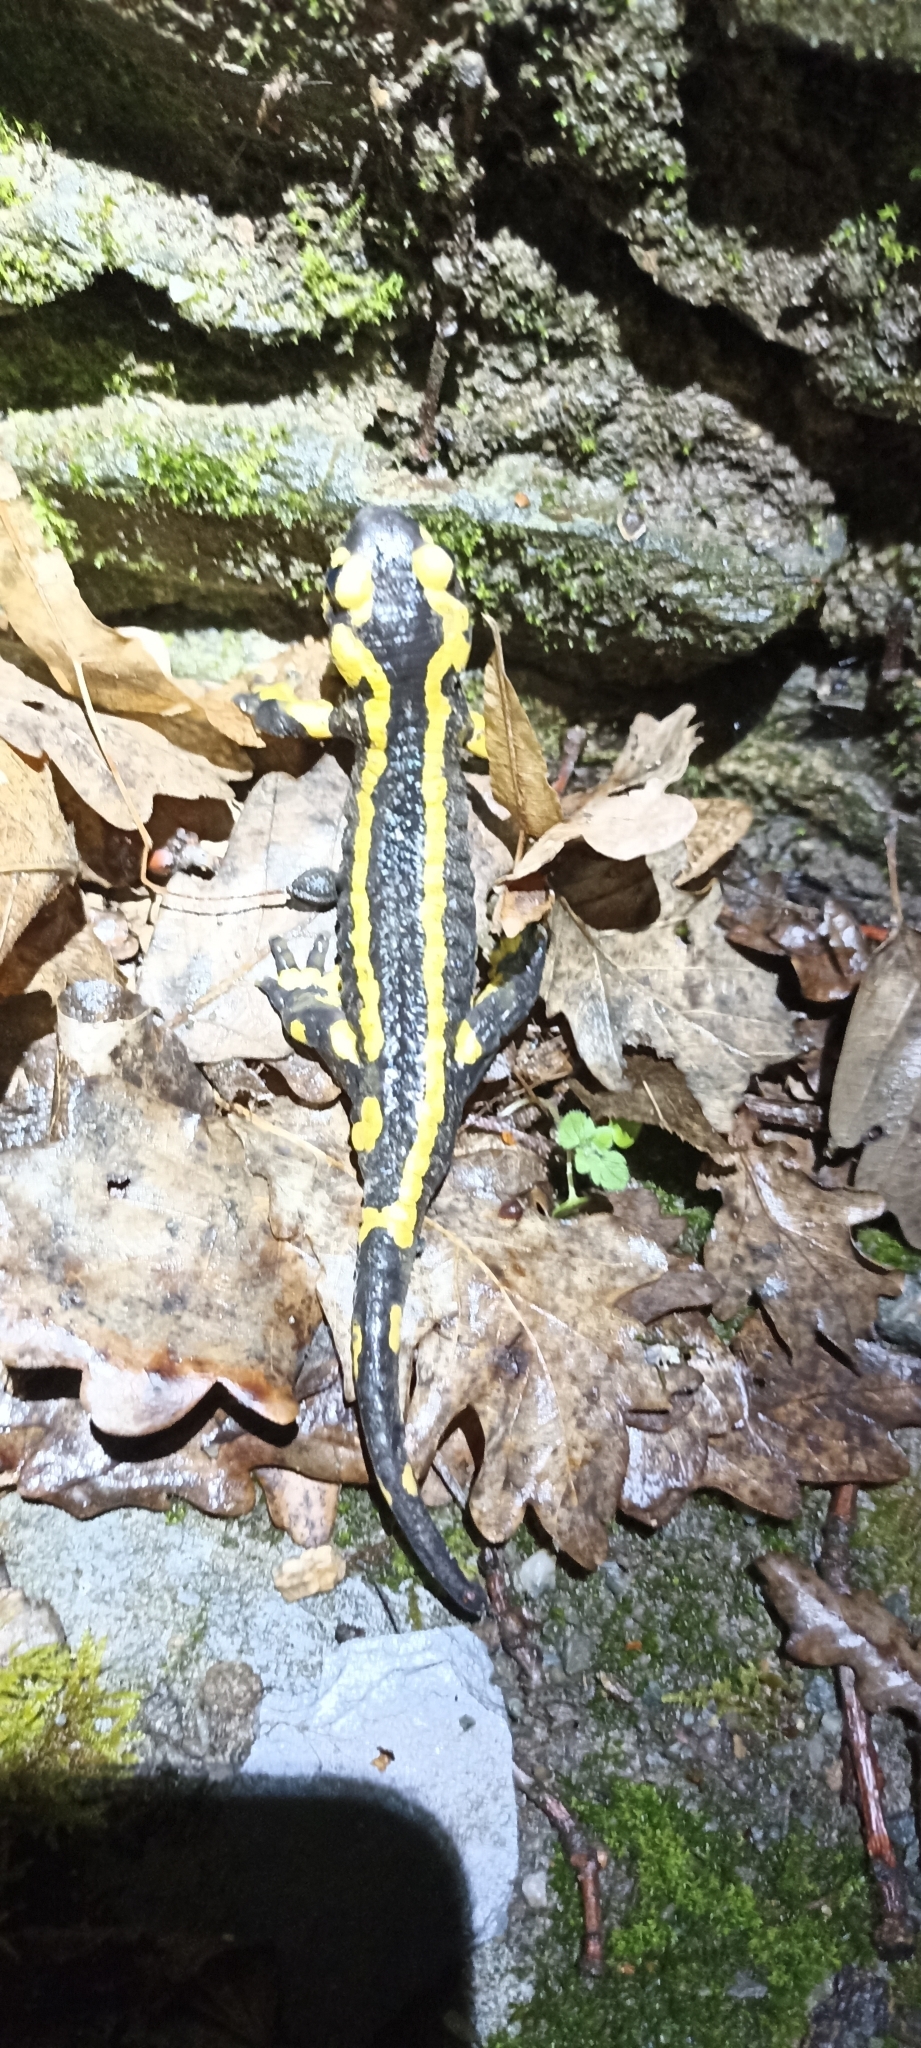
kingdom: Animalia
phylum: Chordata
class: Amphibia
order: Caudata
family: Salamandridae
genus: Salamandra
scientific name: Salamandra salamandra
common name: Fire salamander
